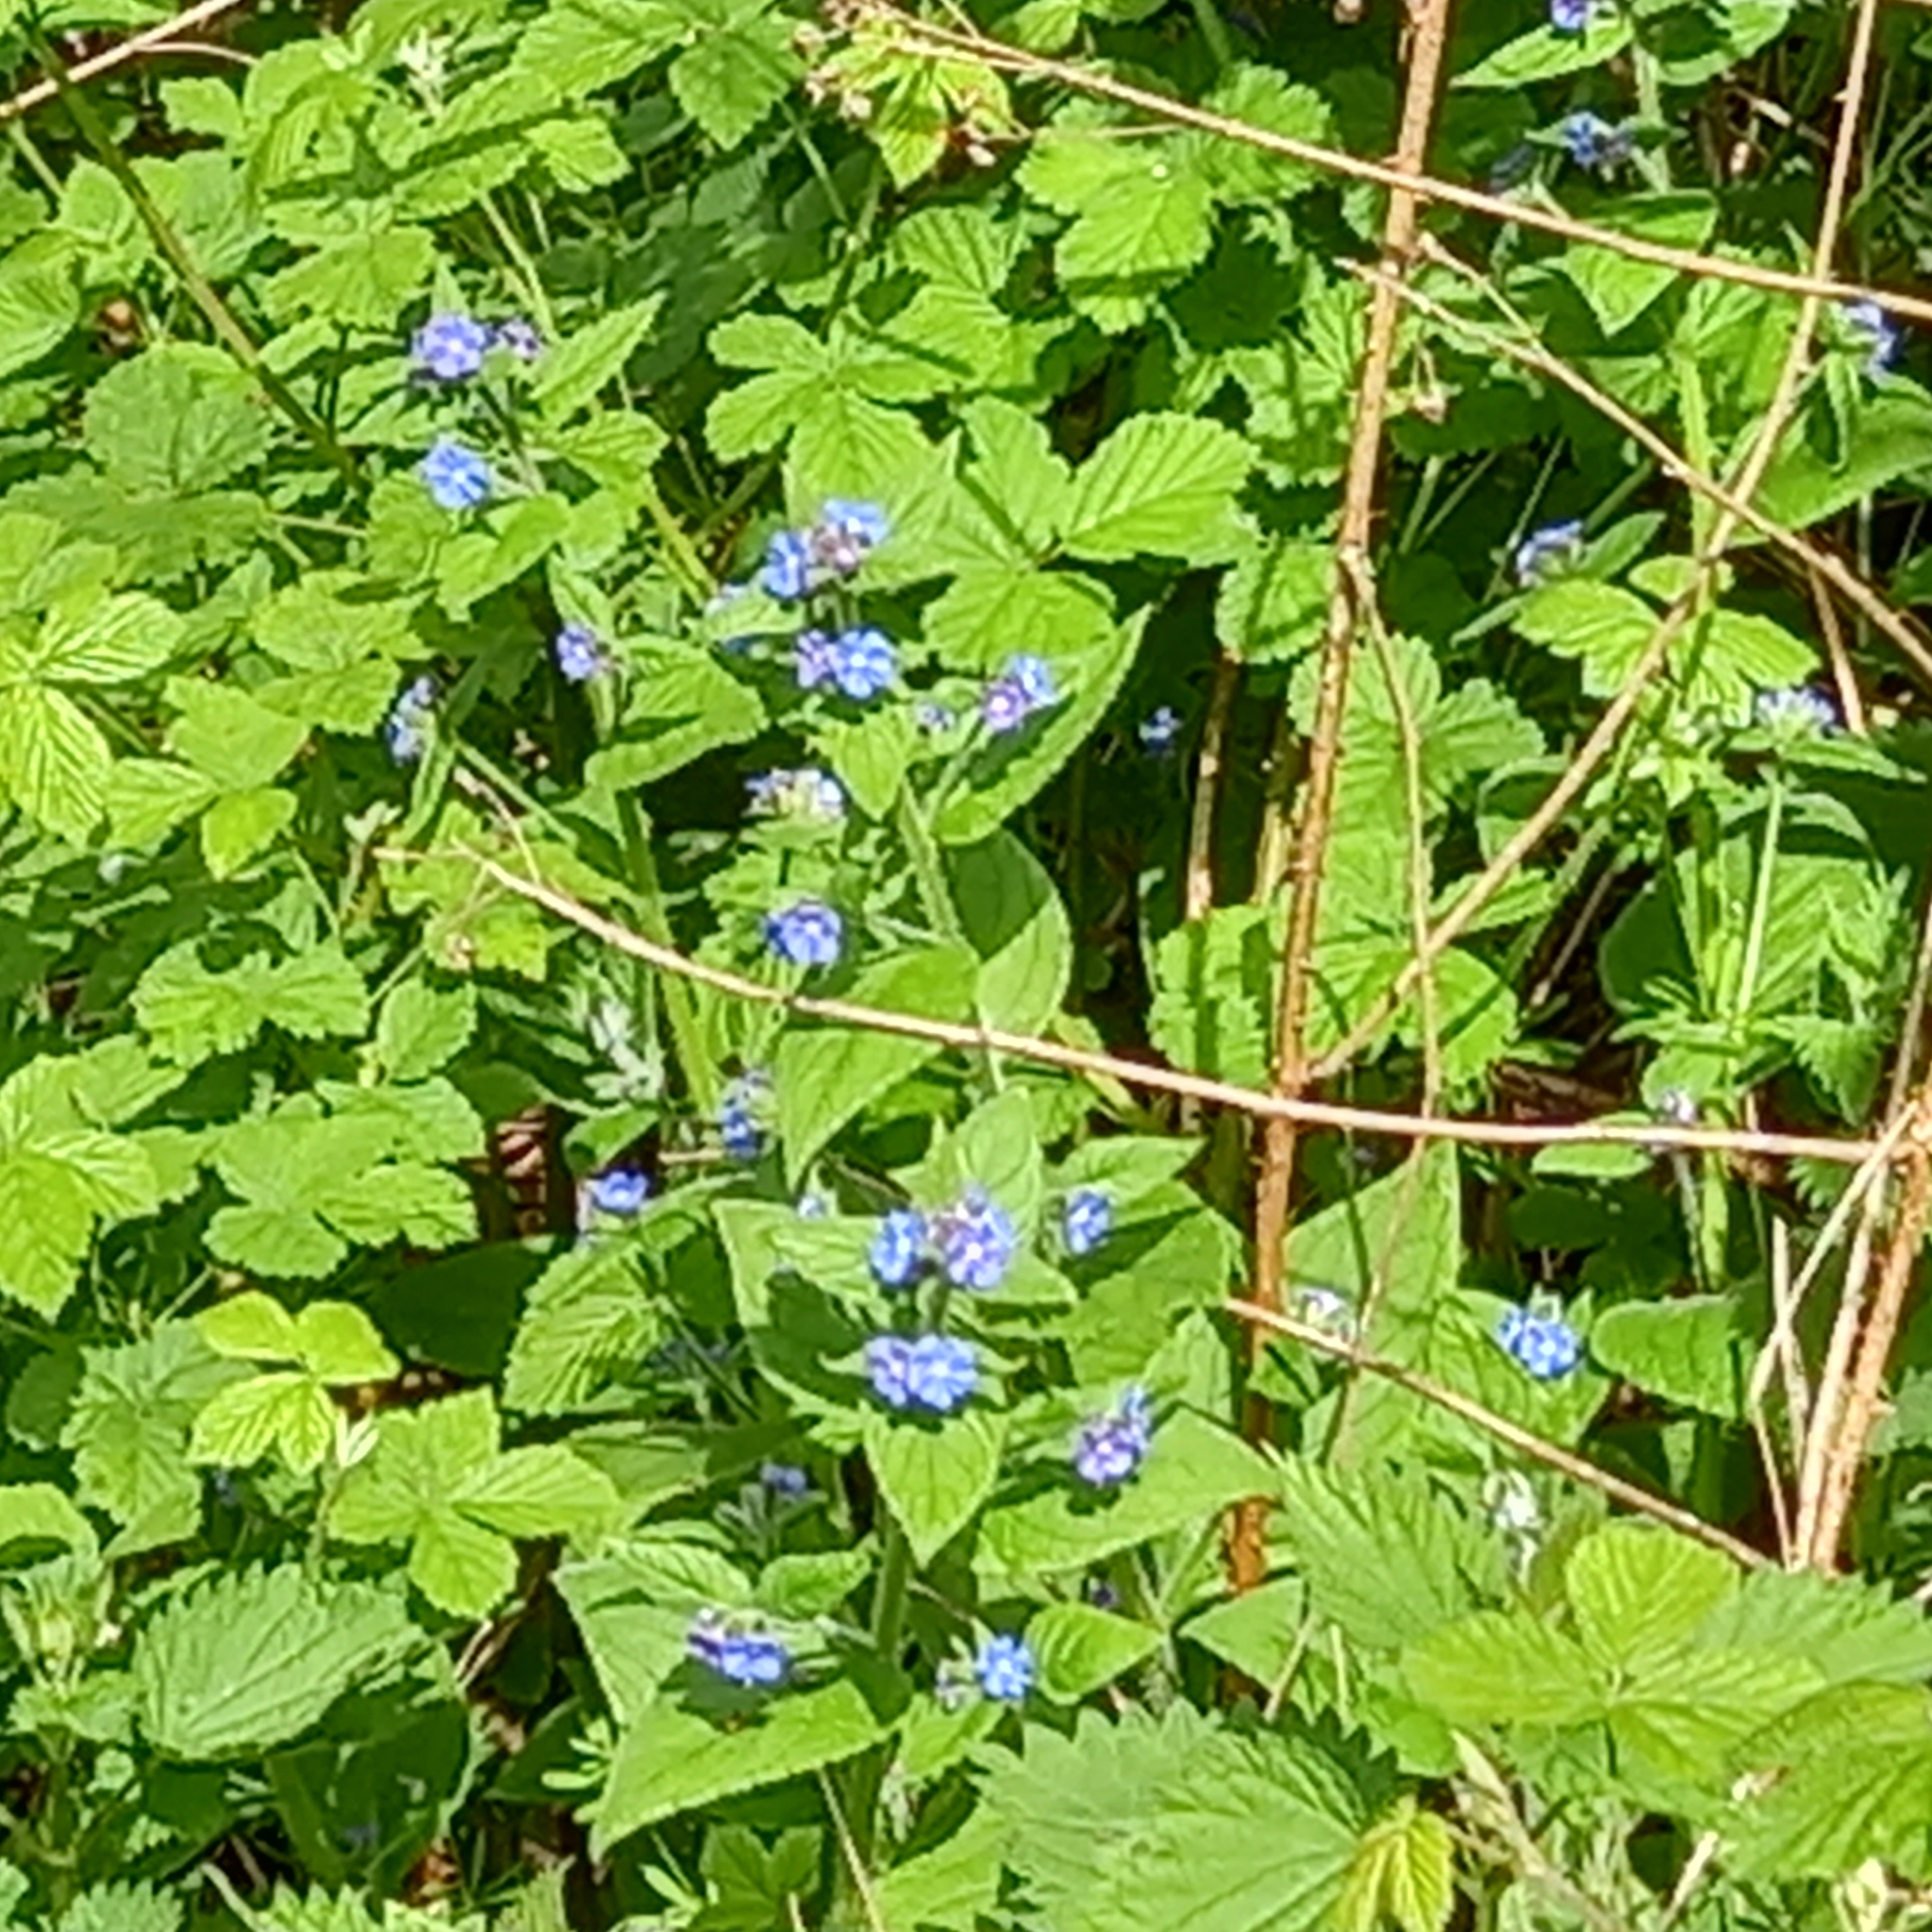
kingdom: Plantae
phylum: Tracheophyta
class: Magnoliopsida
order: Boraginales
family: Boraginaceae
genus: Pentaglottis
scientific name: Pentaglottis sempervirens
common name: Green alkanet
